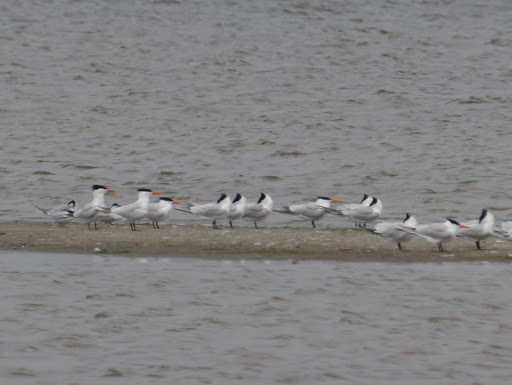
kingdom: Animalia
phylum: Chordata
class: Aves
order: Charadriiformes
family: Laridae
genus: Thalasseus
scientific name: Thalasseus maximus
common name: Royal tern
